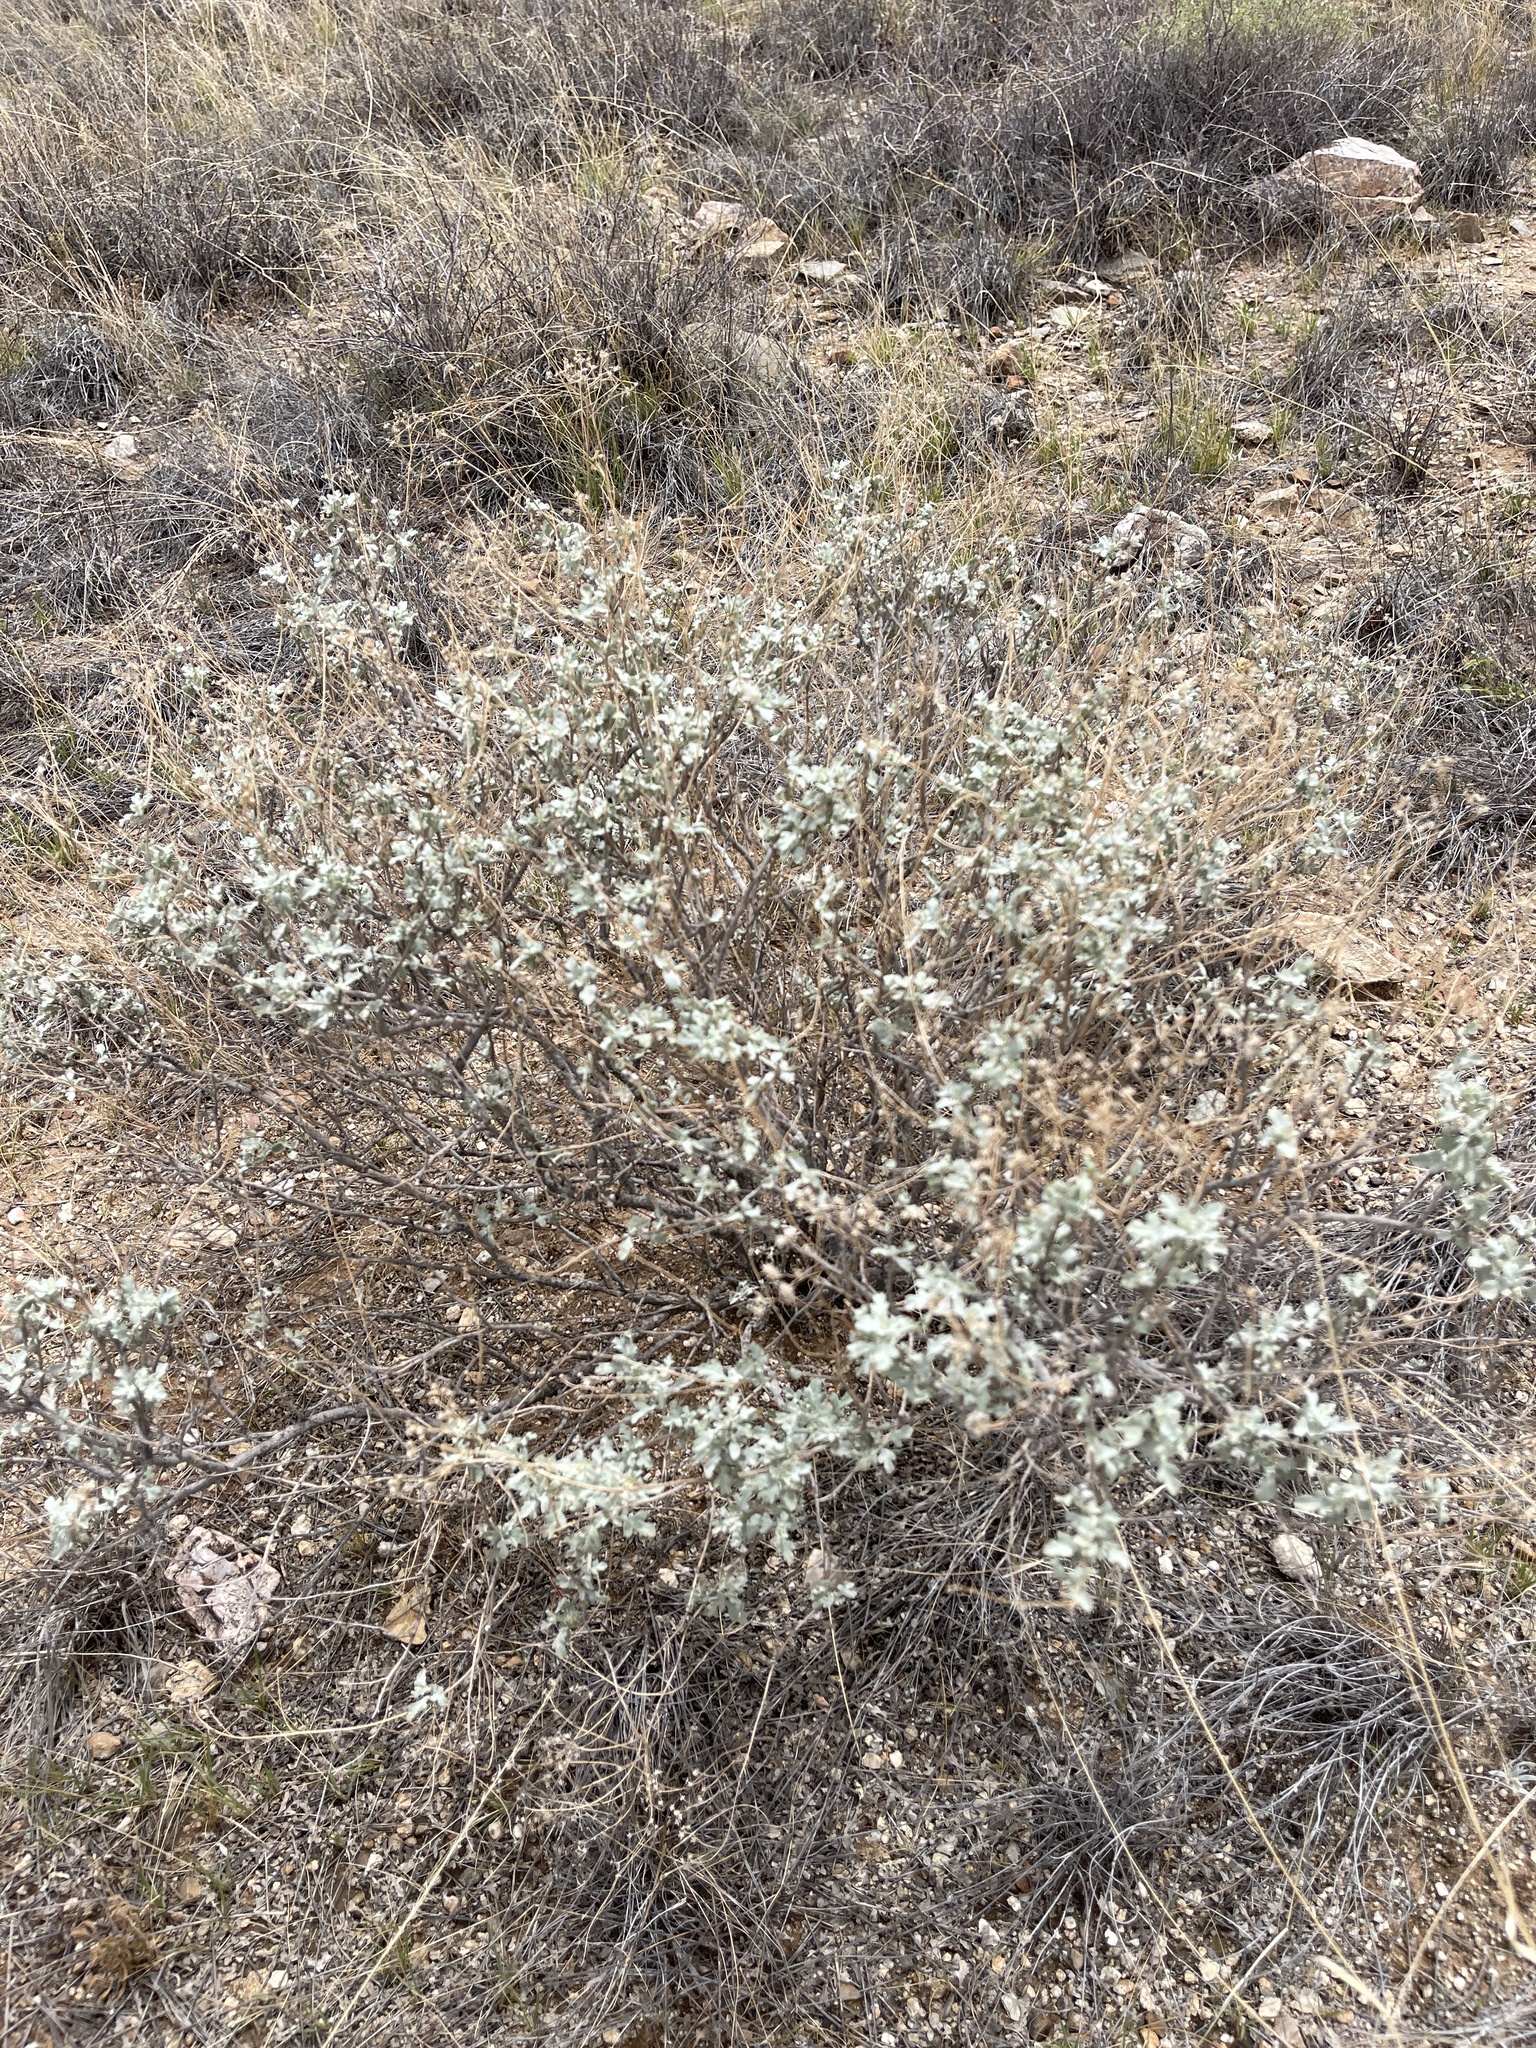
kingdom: Plantae
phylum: Tracheophyta
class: Magnoliopsida
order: Asterales
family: Asteraceae
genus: Parthenium
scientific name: Parthenium incanum
